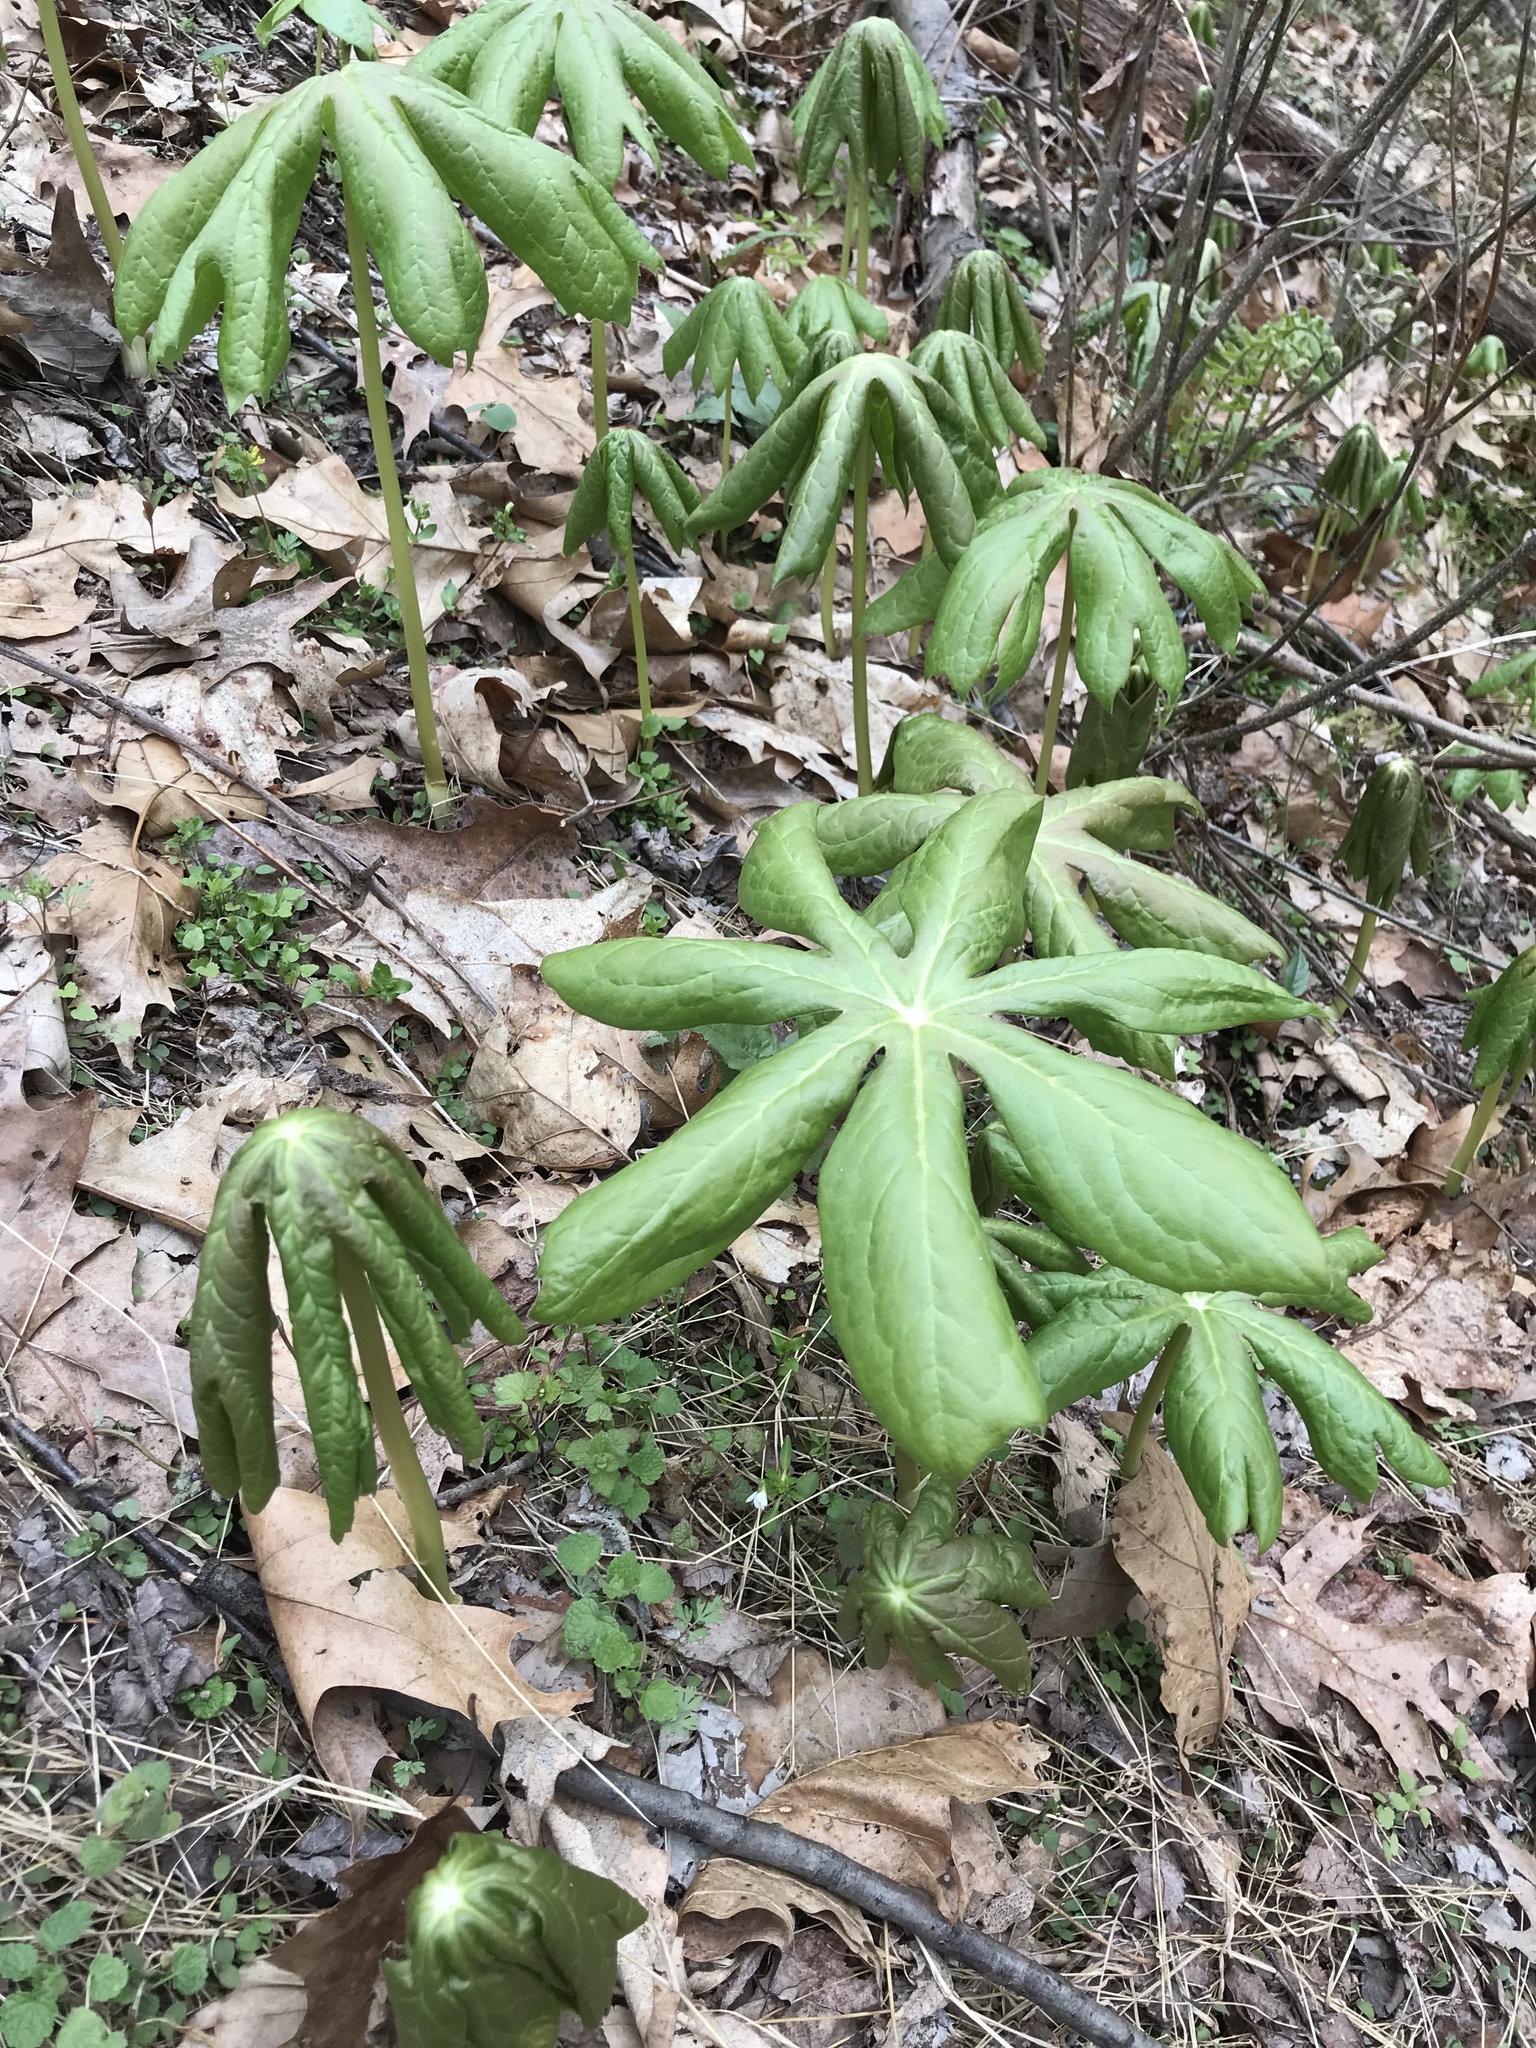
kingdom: Plantae
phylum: Tracheophyta
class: Magnoliopsida
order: Ranunculales
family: Berberidaceae
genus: Podophyllum
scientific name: Podophyllum peltatum
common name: Wild mandrake
